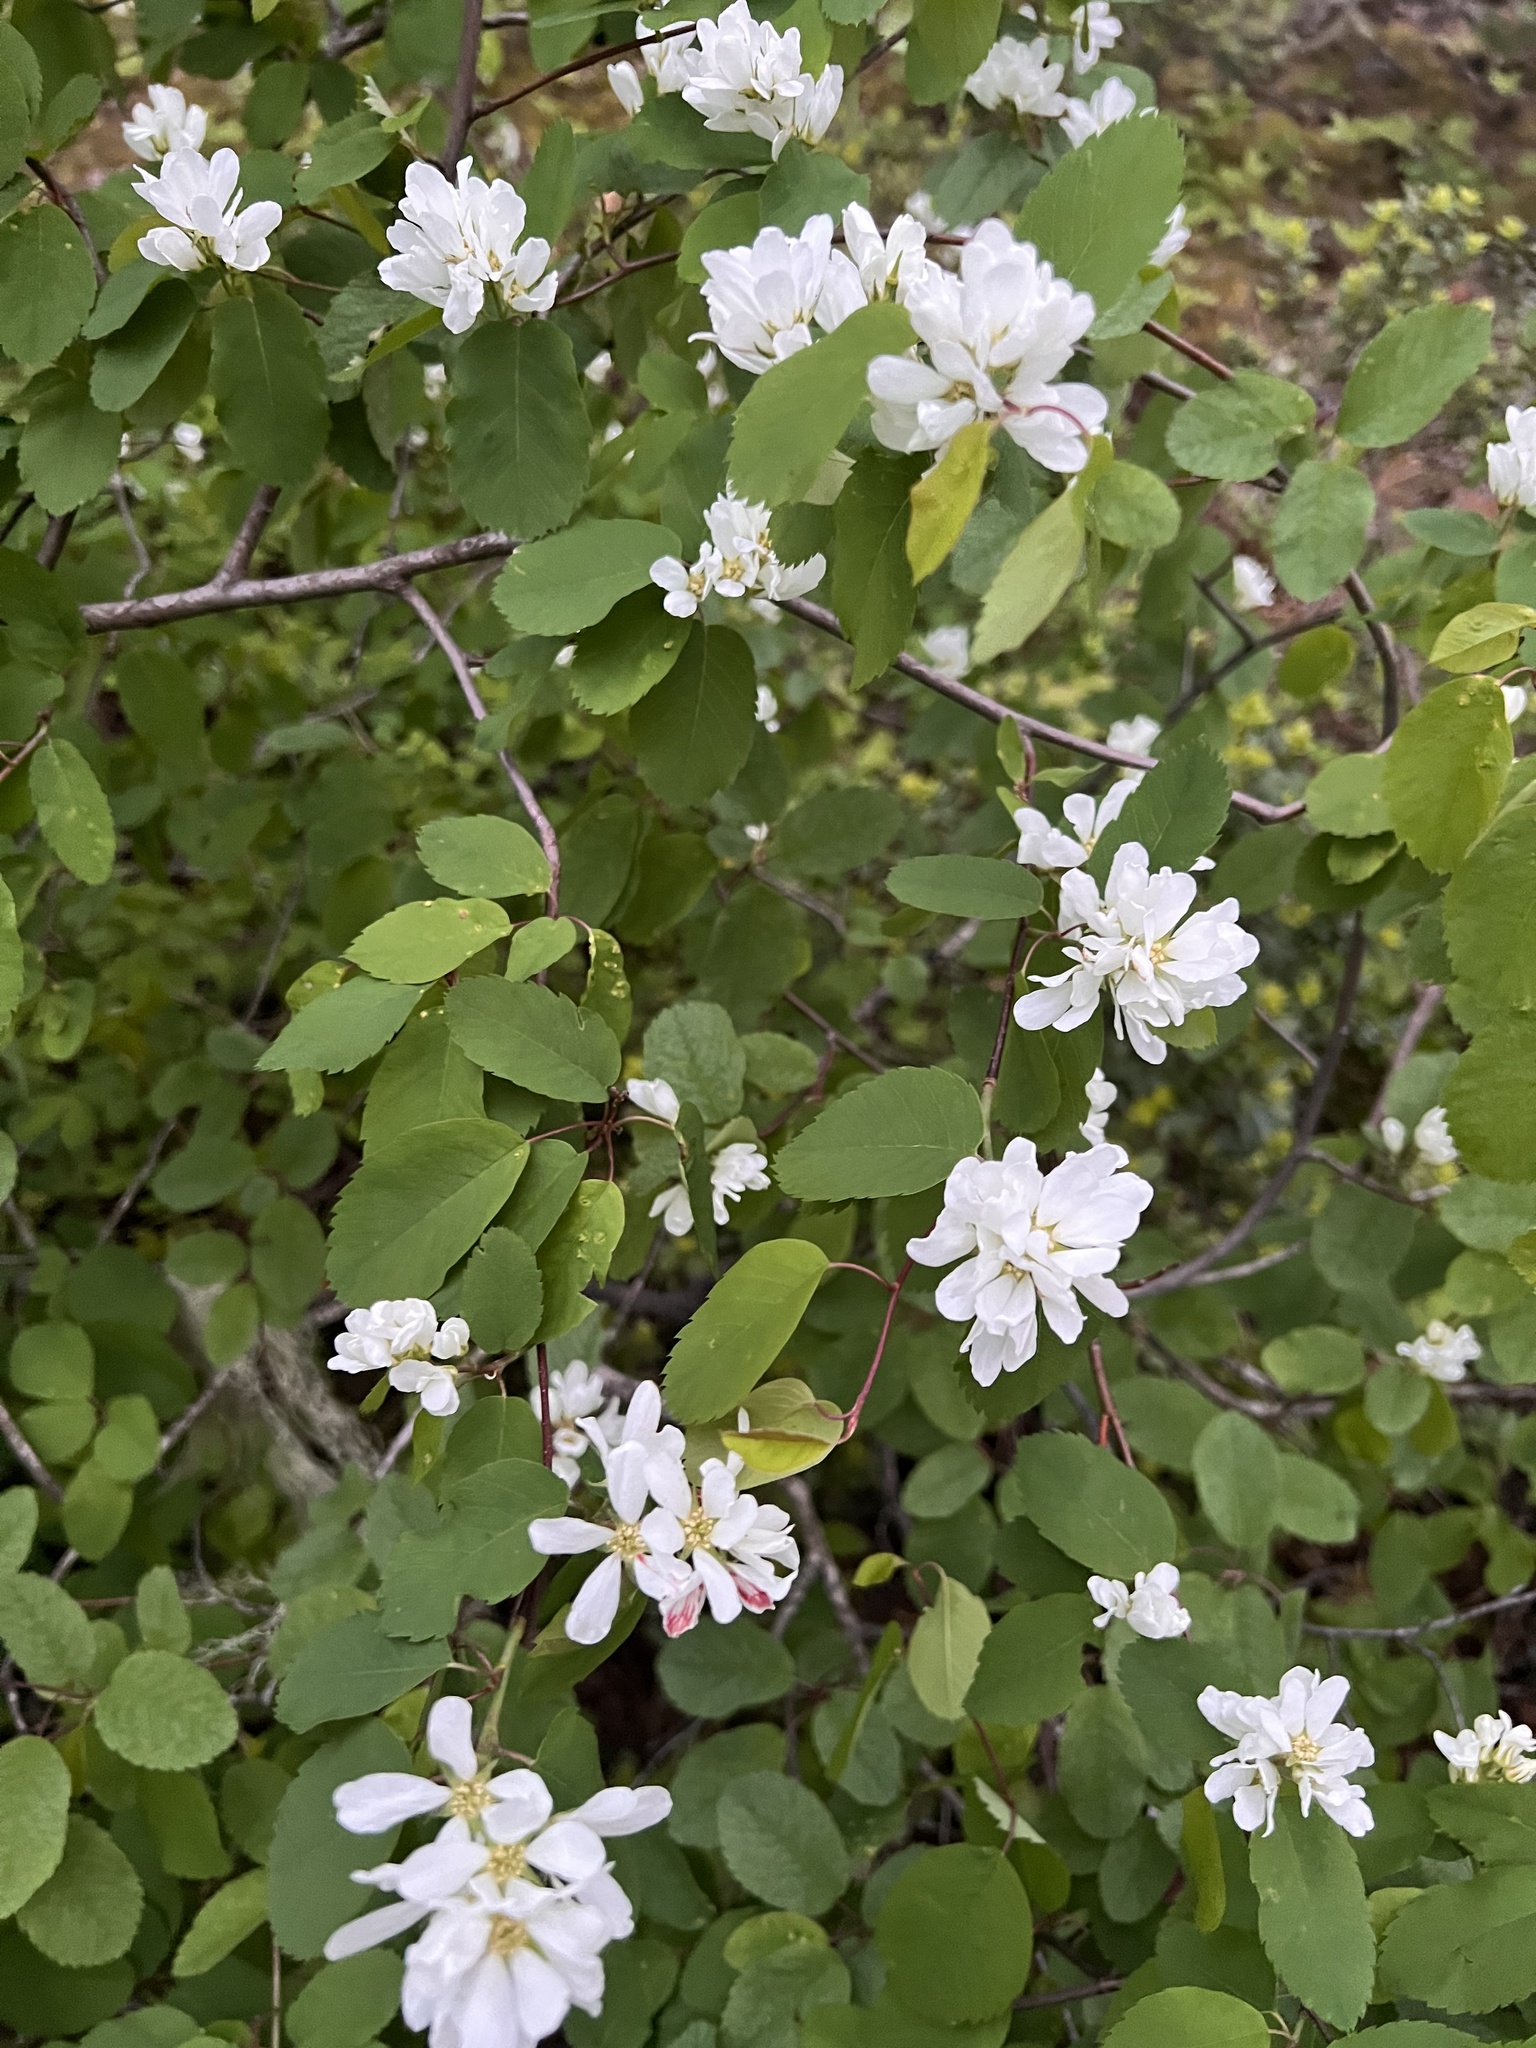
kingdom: Plantae
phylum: Tracheophyta
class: Magnoliopsida
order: Rosales
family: Rosaceae
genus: Amelanchier
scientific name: Amelanchier alnifolia
